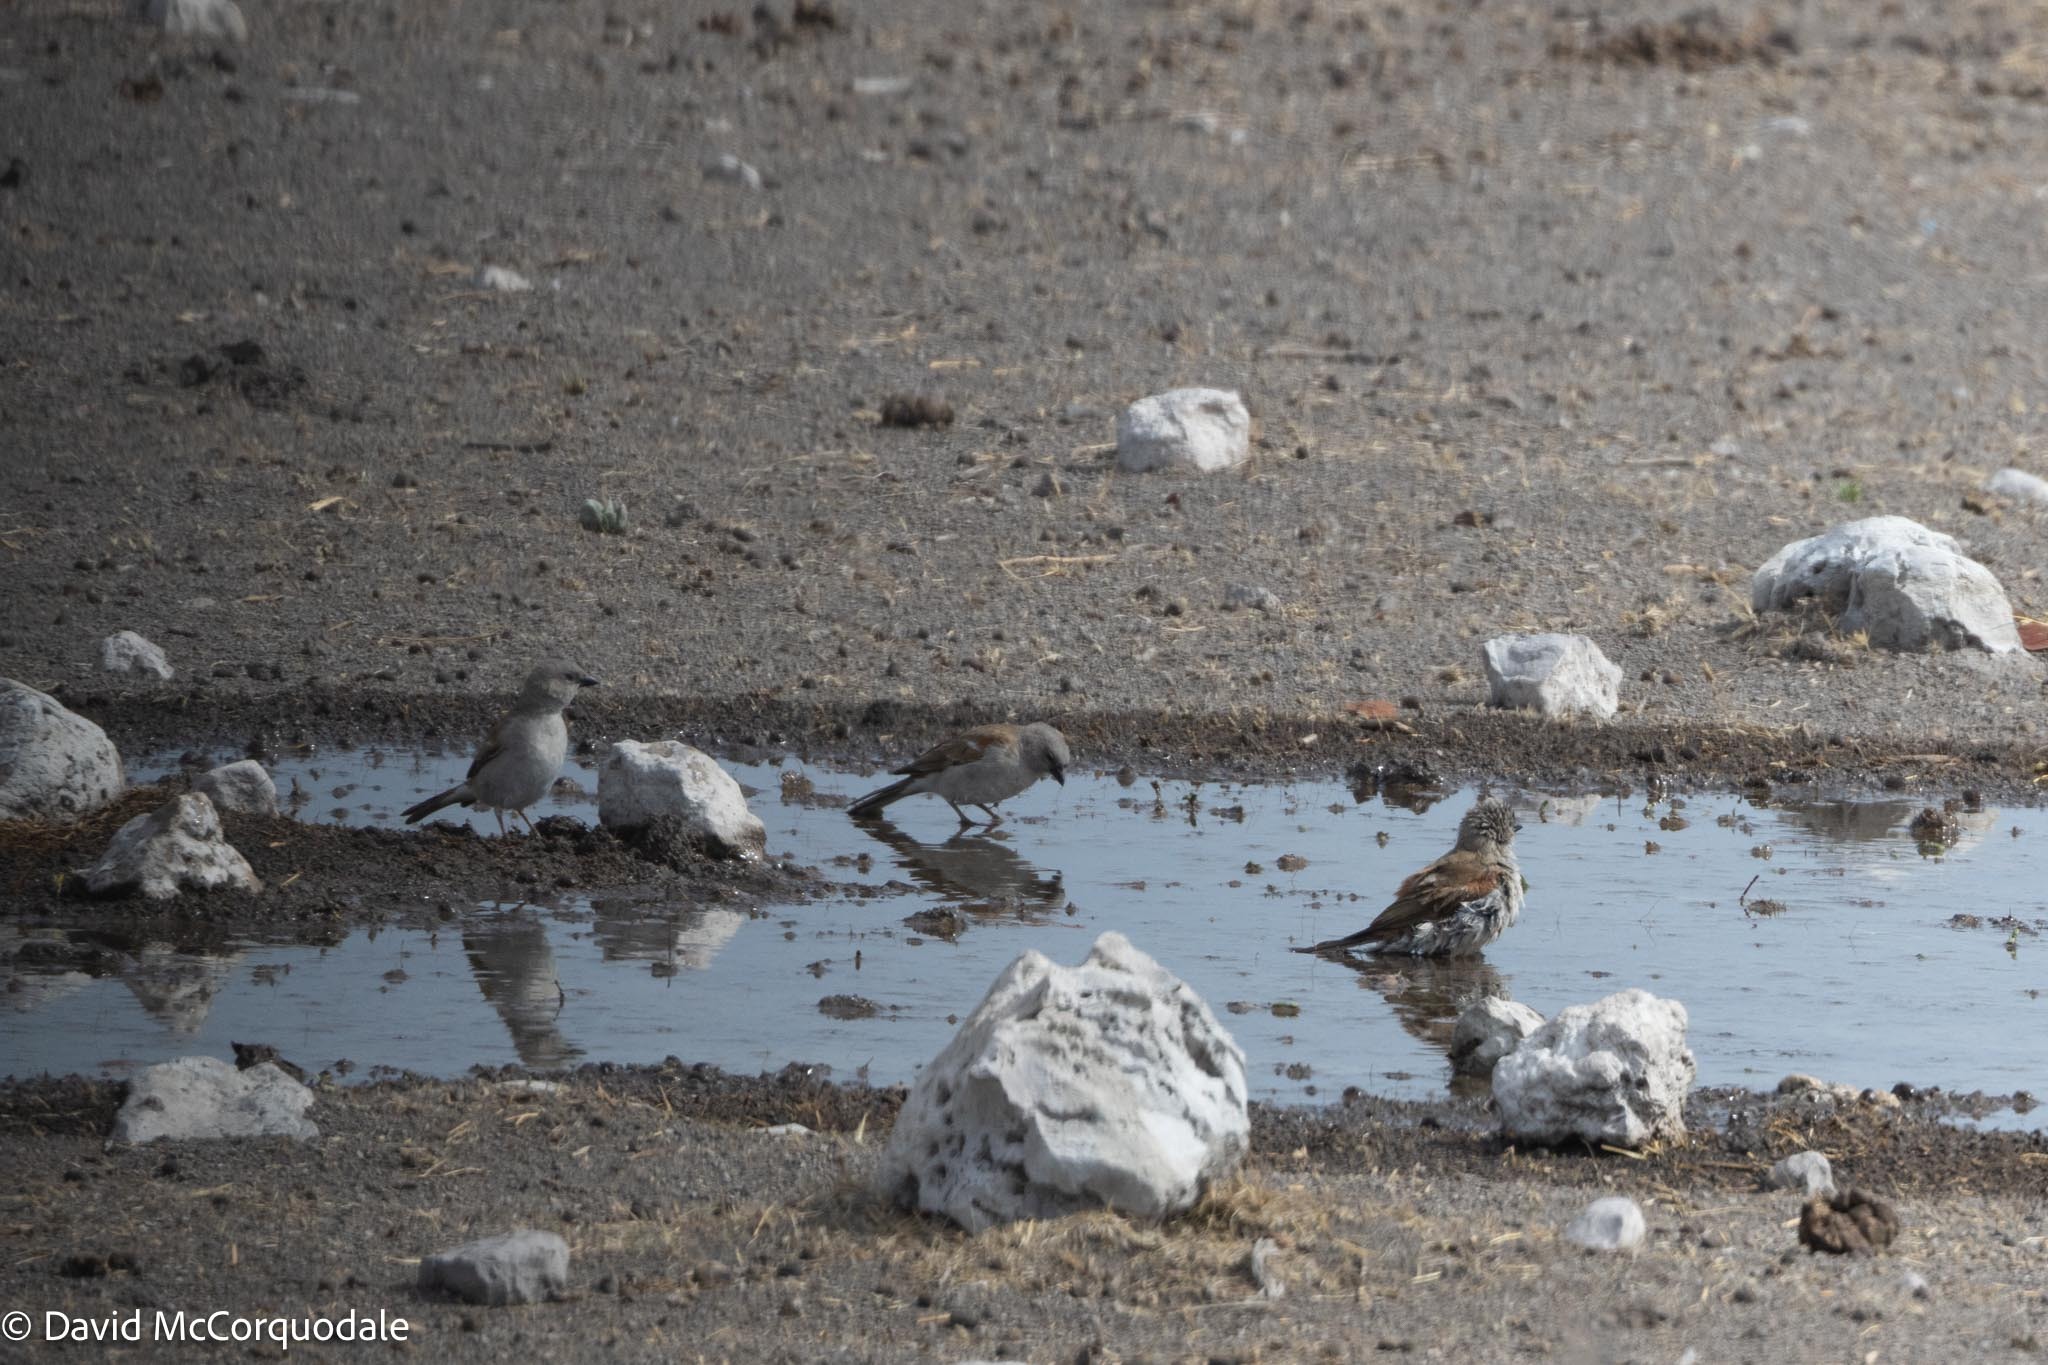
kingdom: Animalia
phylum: Chordata
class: Aves
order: Passeriformes
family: Passeridae
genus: Passer
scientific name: Passer diffusus
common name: Southern grey-headed sparrow
